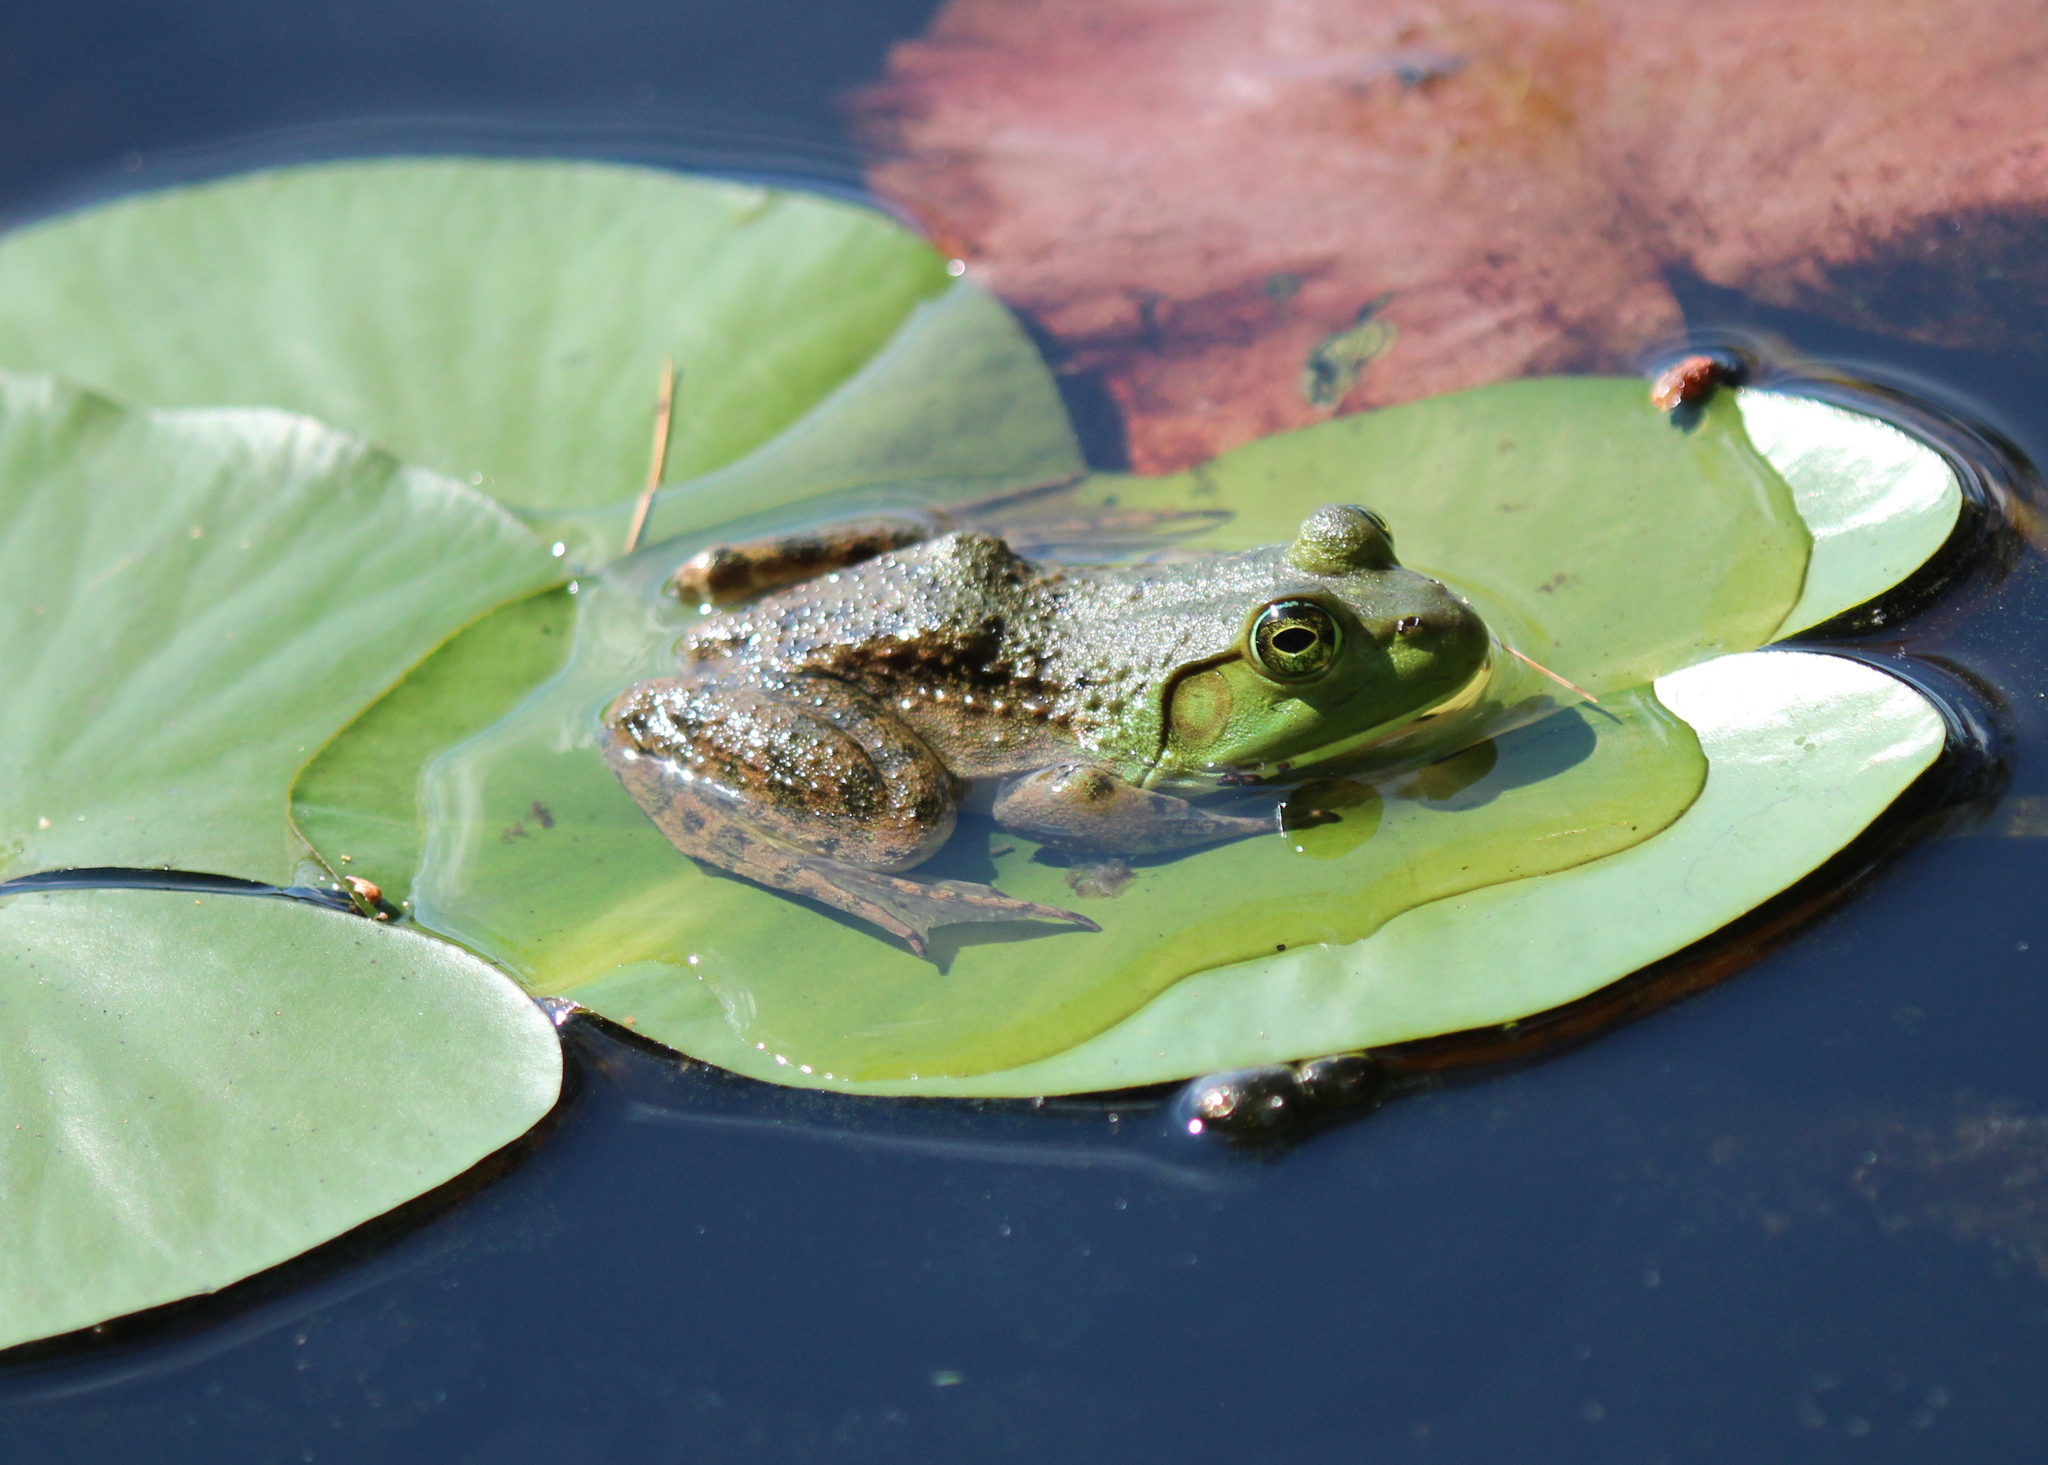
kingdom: Animalia
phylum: Chordata
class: Amphibia
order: Anura
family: Ranidae
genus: Lithobates
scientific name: Lithobates catesbeianus
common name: American bullfrog
